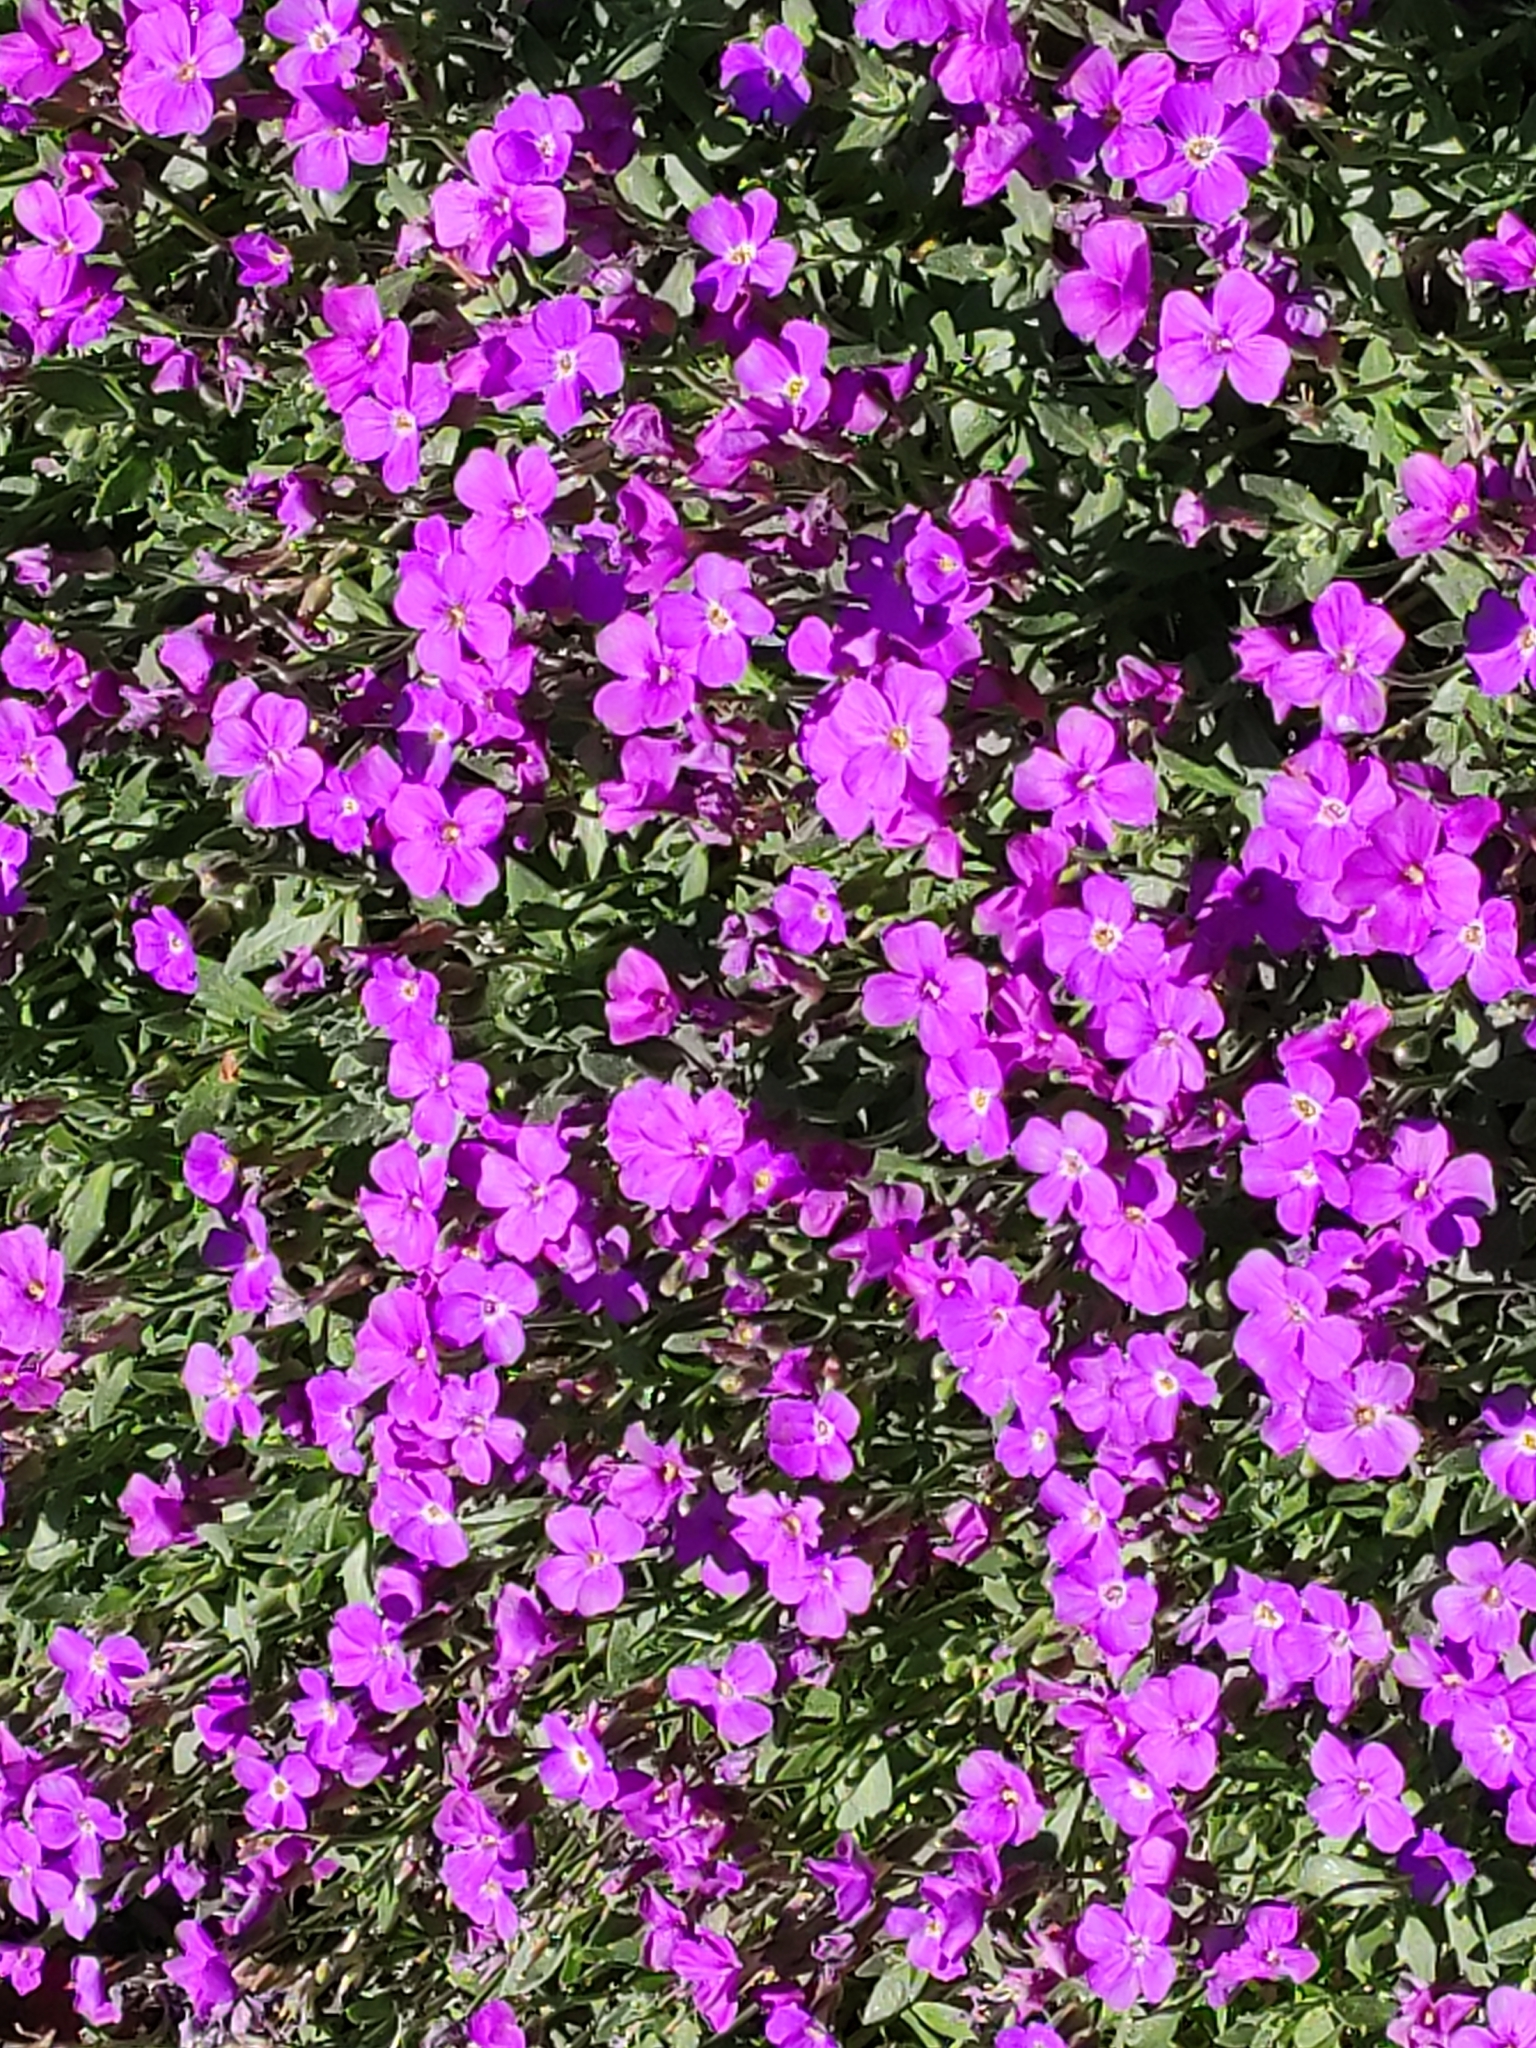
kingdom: Plantae
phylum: Tracheophyta
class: Magnoliopsida
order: Brassicales
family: Brassicaceae
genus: Aubrieta
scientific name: Aubrieta deltoidea
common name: Aubretia
